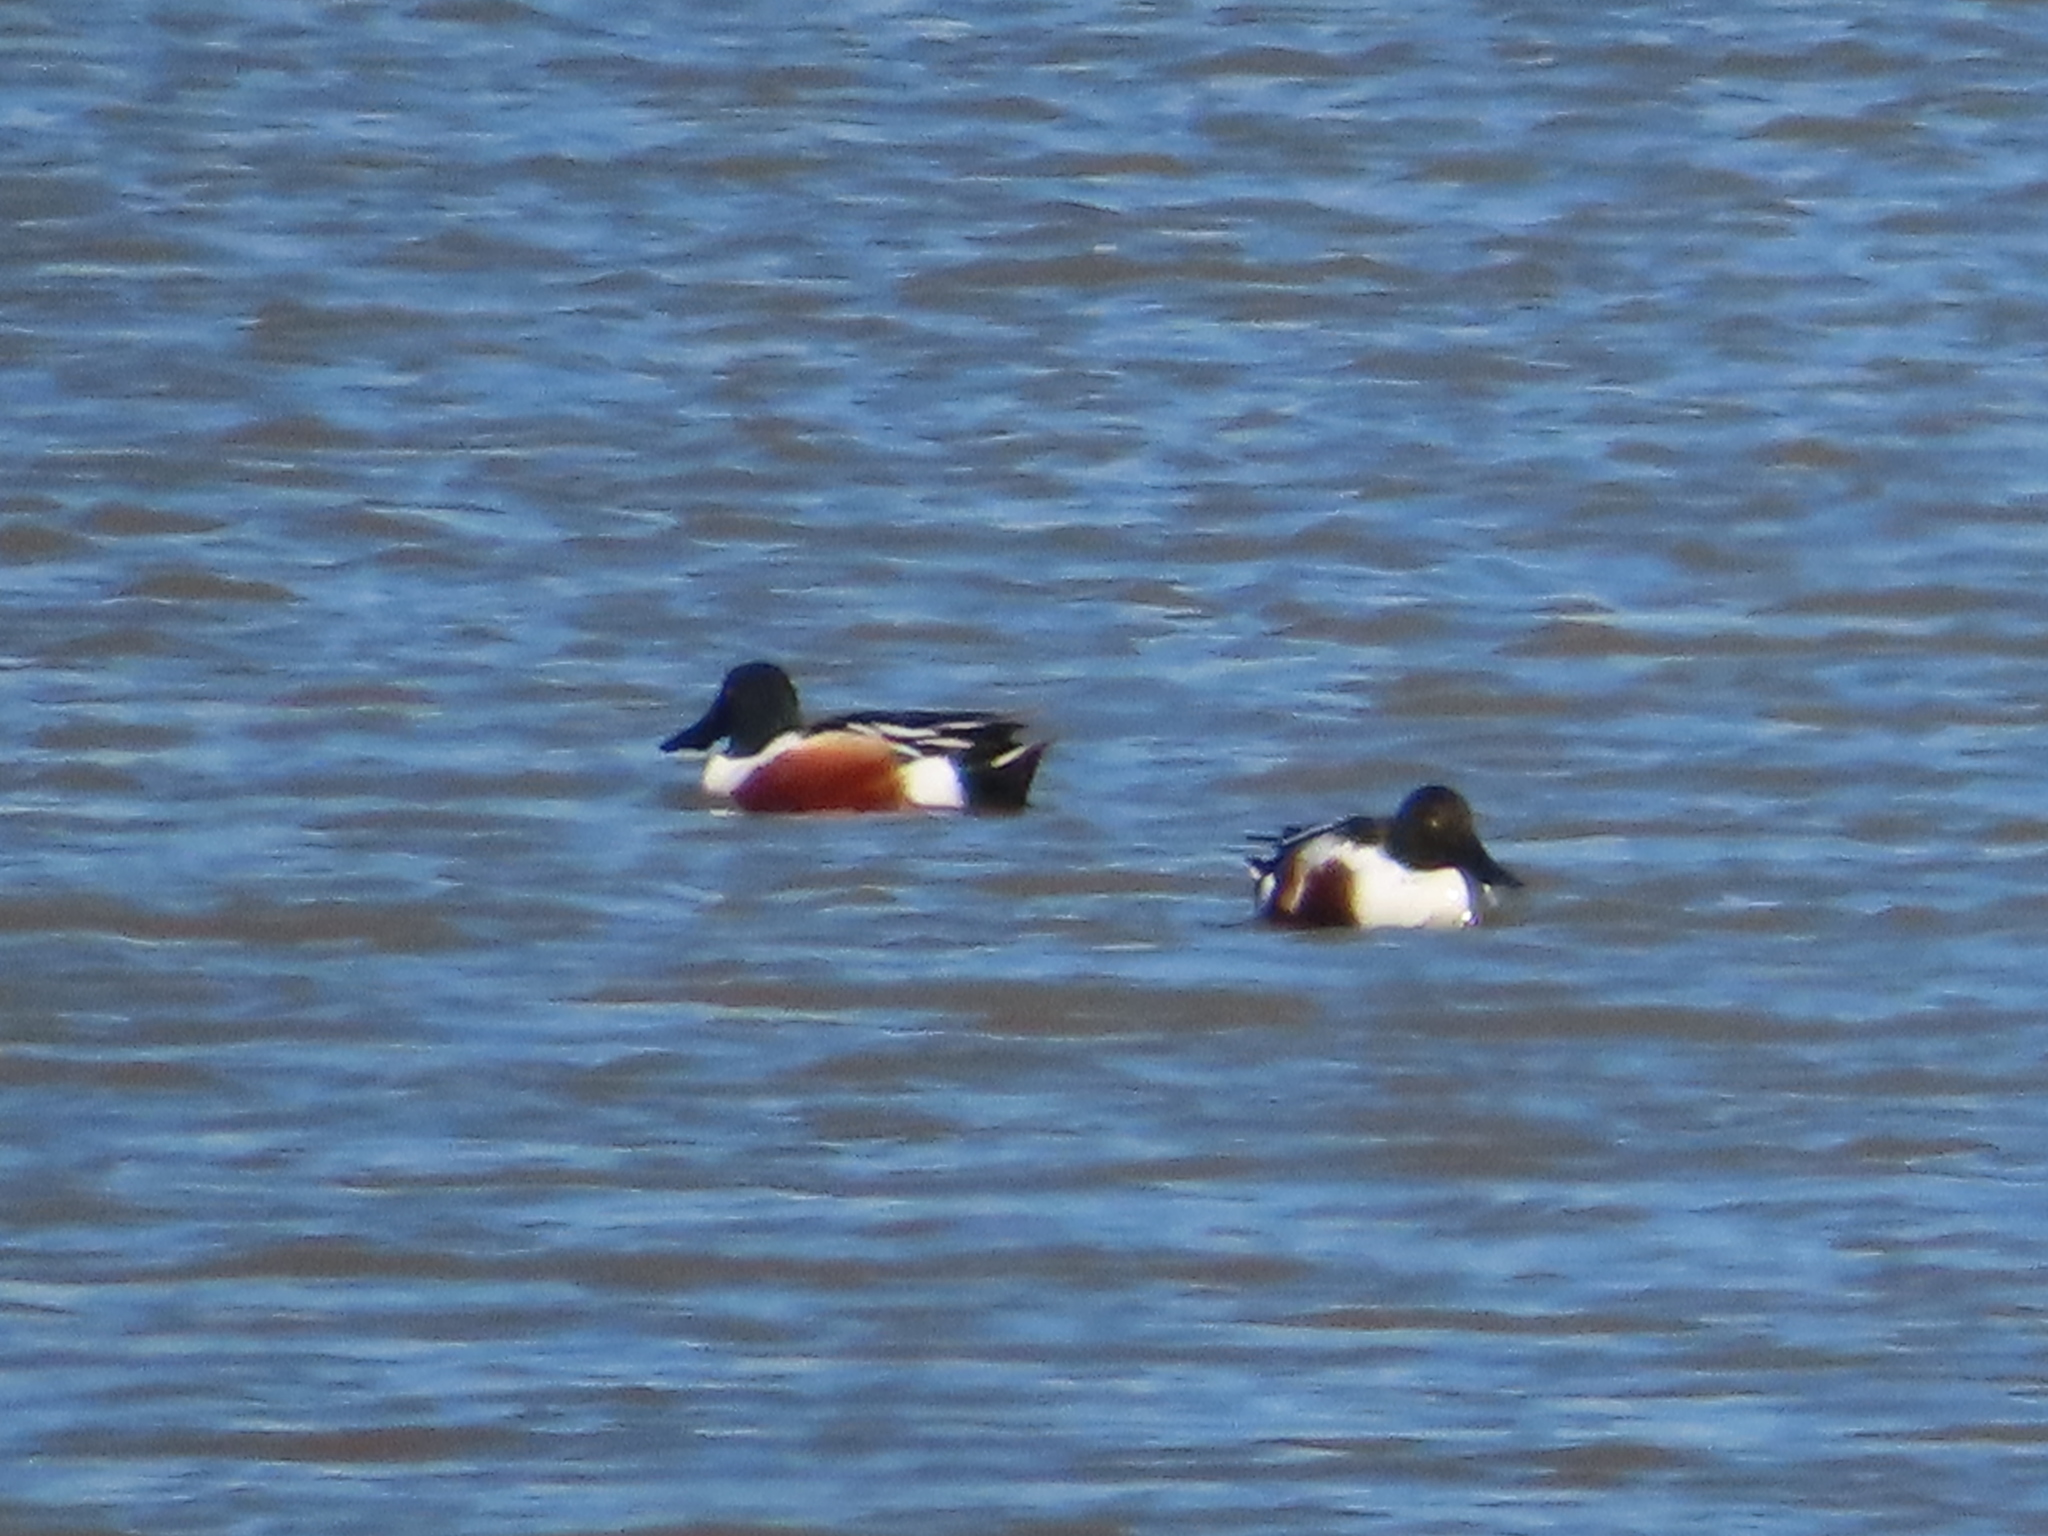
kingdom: Animalia
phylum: Chordata
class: Aves
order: Anseriformes
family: Anatidae
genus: Spatula
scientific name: Spatula clypeata
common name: Northern shoveler
